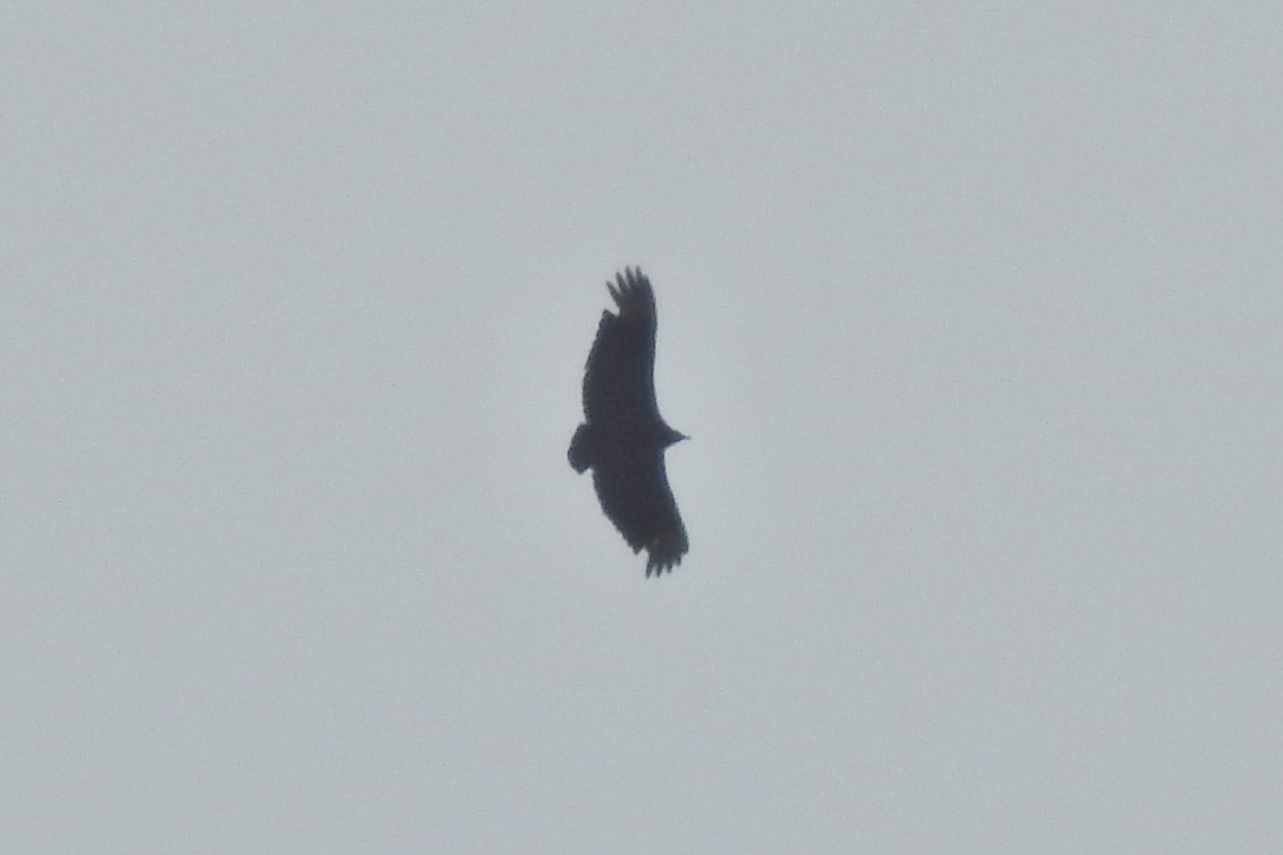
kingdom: Animalia
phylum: Chordata
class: Aves
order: Accipitriformes
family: Cathartidae
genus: Coragyps
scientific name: Coragyps atratus
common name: Black vulture
